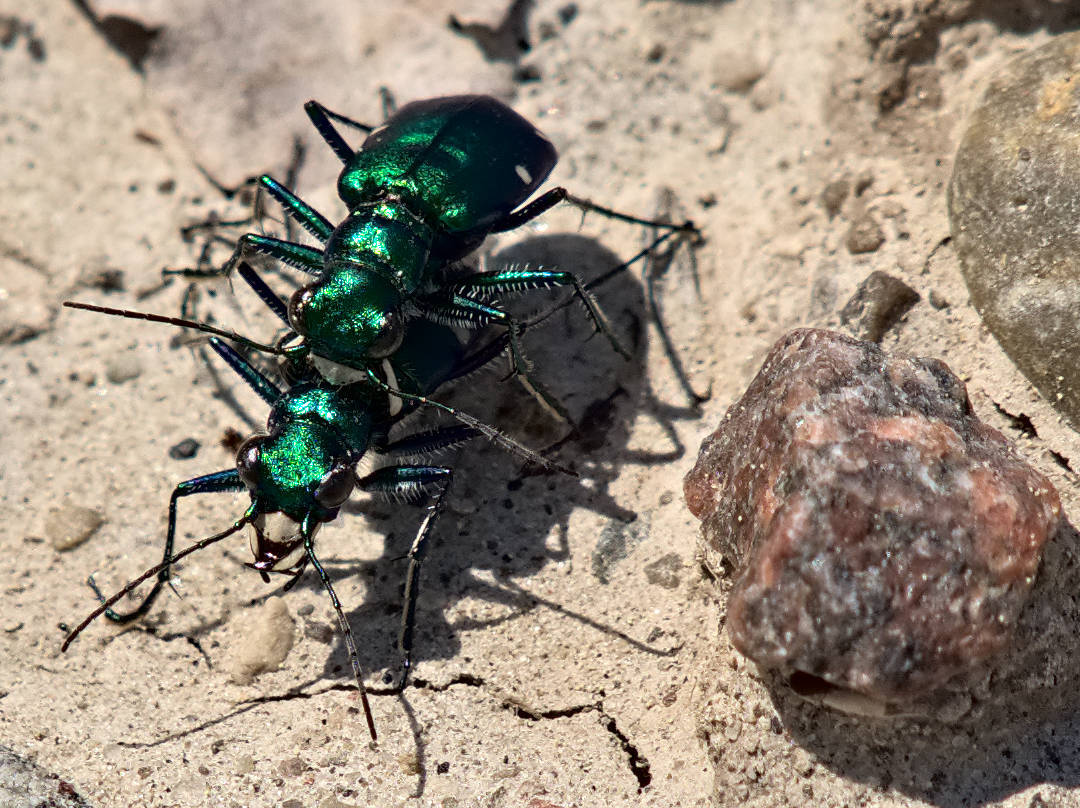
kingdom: Animalia
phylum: Arthropoda
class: Insecta
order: Coleoptera
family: Carabidae
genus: Cicindela
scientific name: Cicindela sexguttata
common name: Six-spotted tiger beetle
